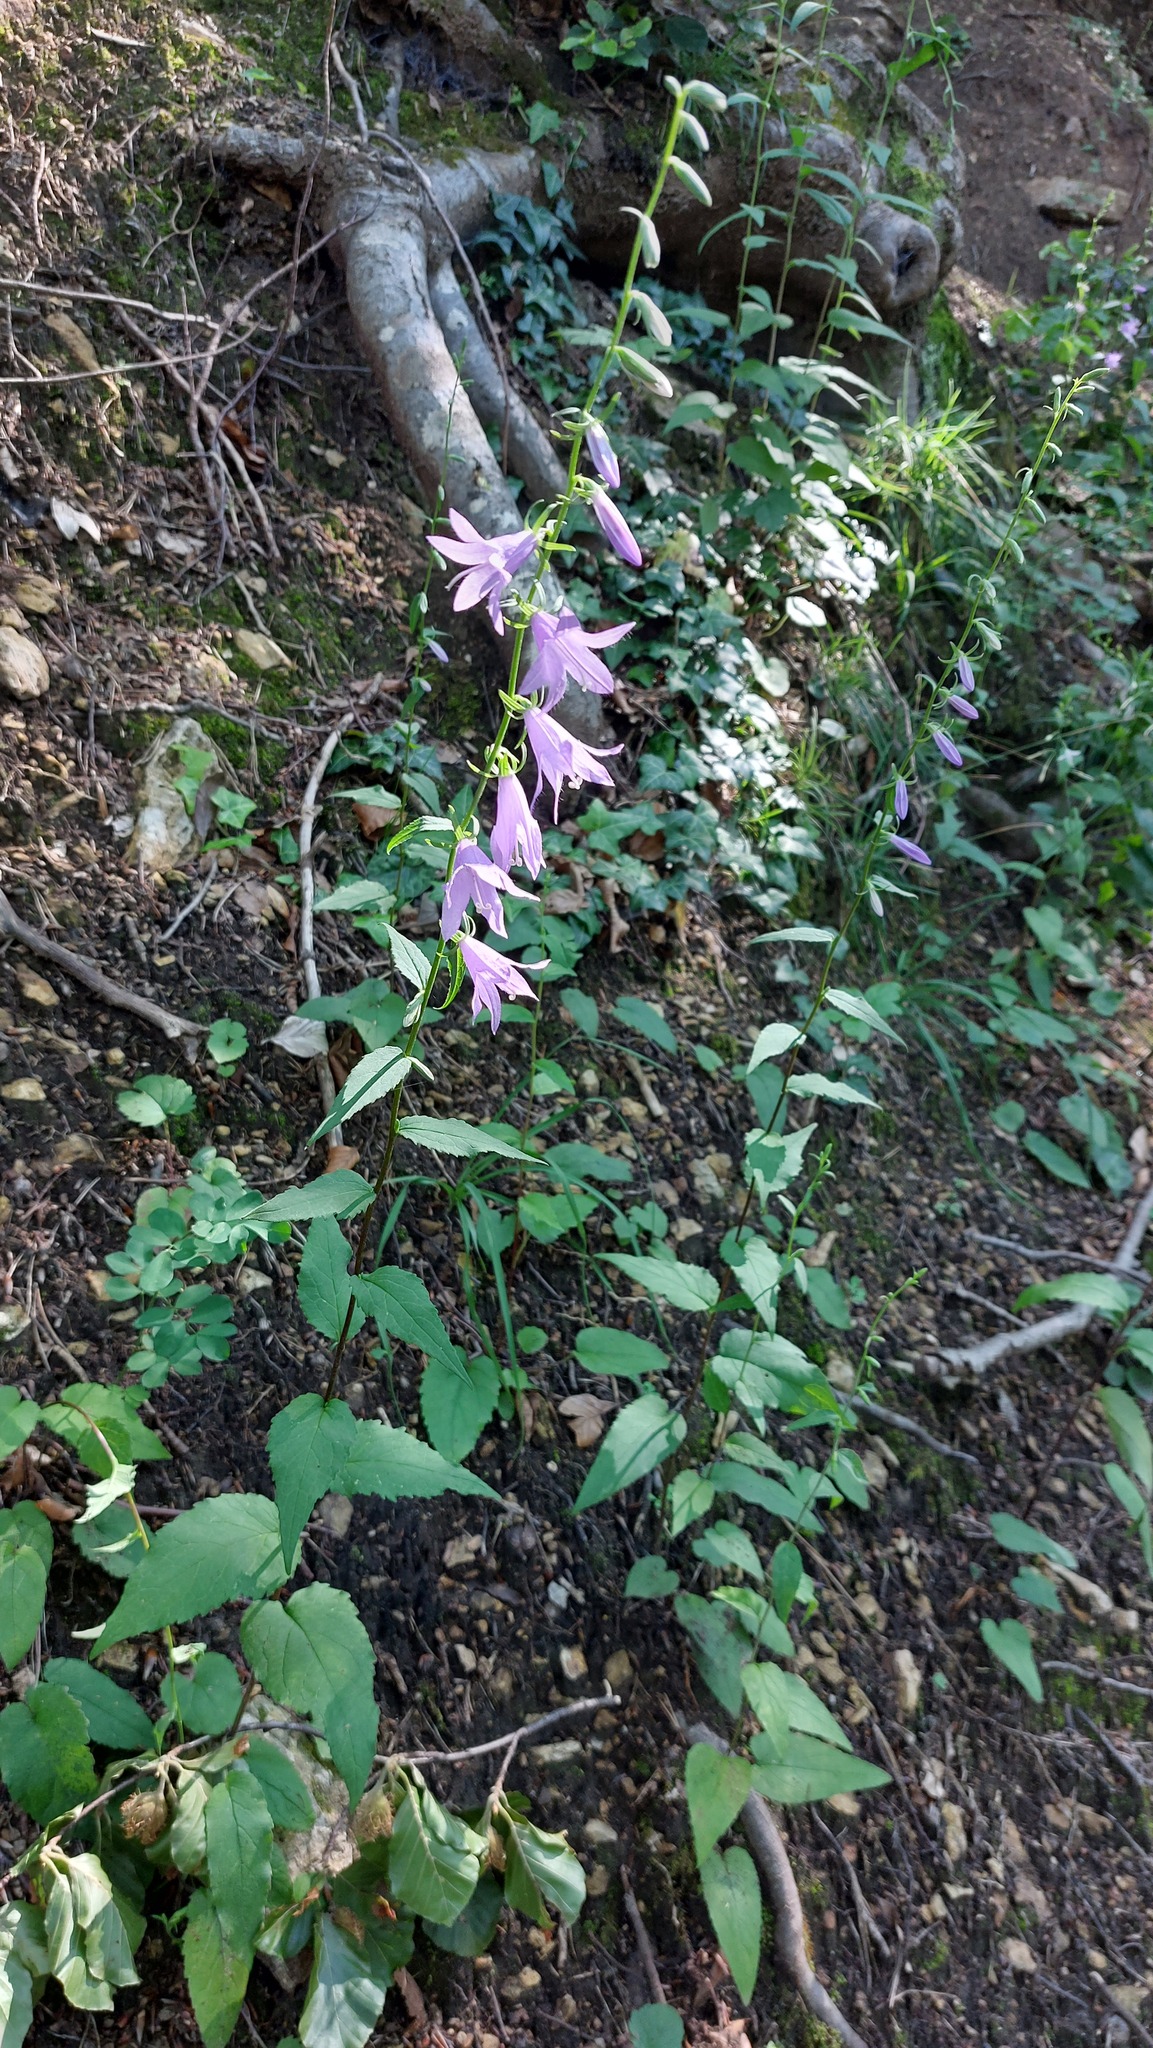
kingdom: Plantae
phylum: Tracheophyta
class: Magnoliopsida
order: Asterales
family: Campanulaceae
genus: Campanula
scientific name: Campanula rapunculoides
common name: Creeping bellflower
